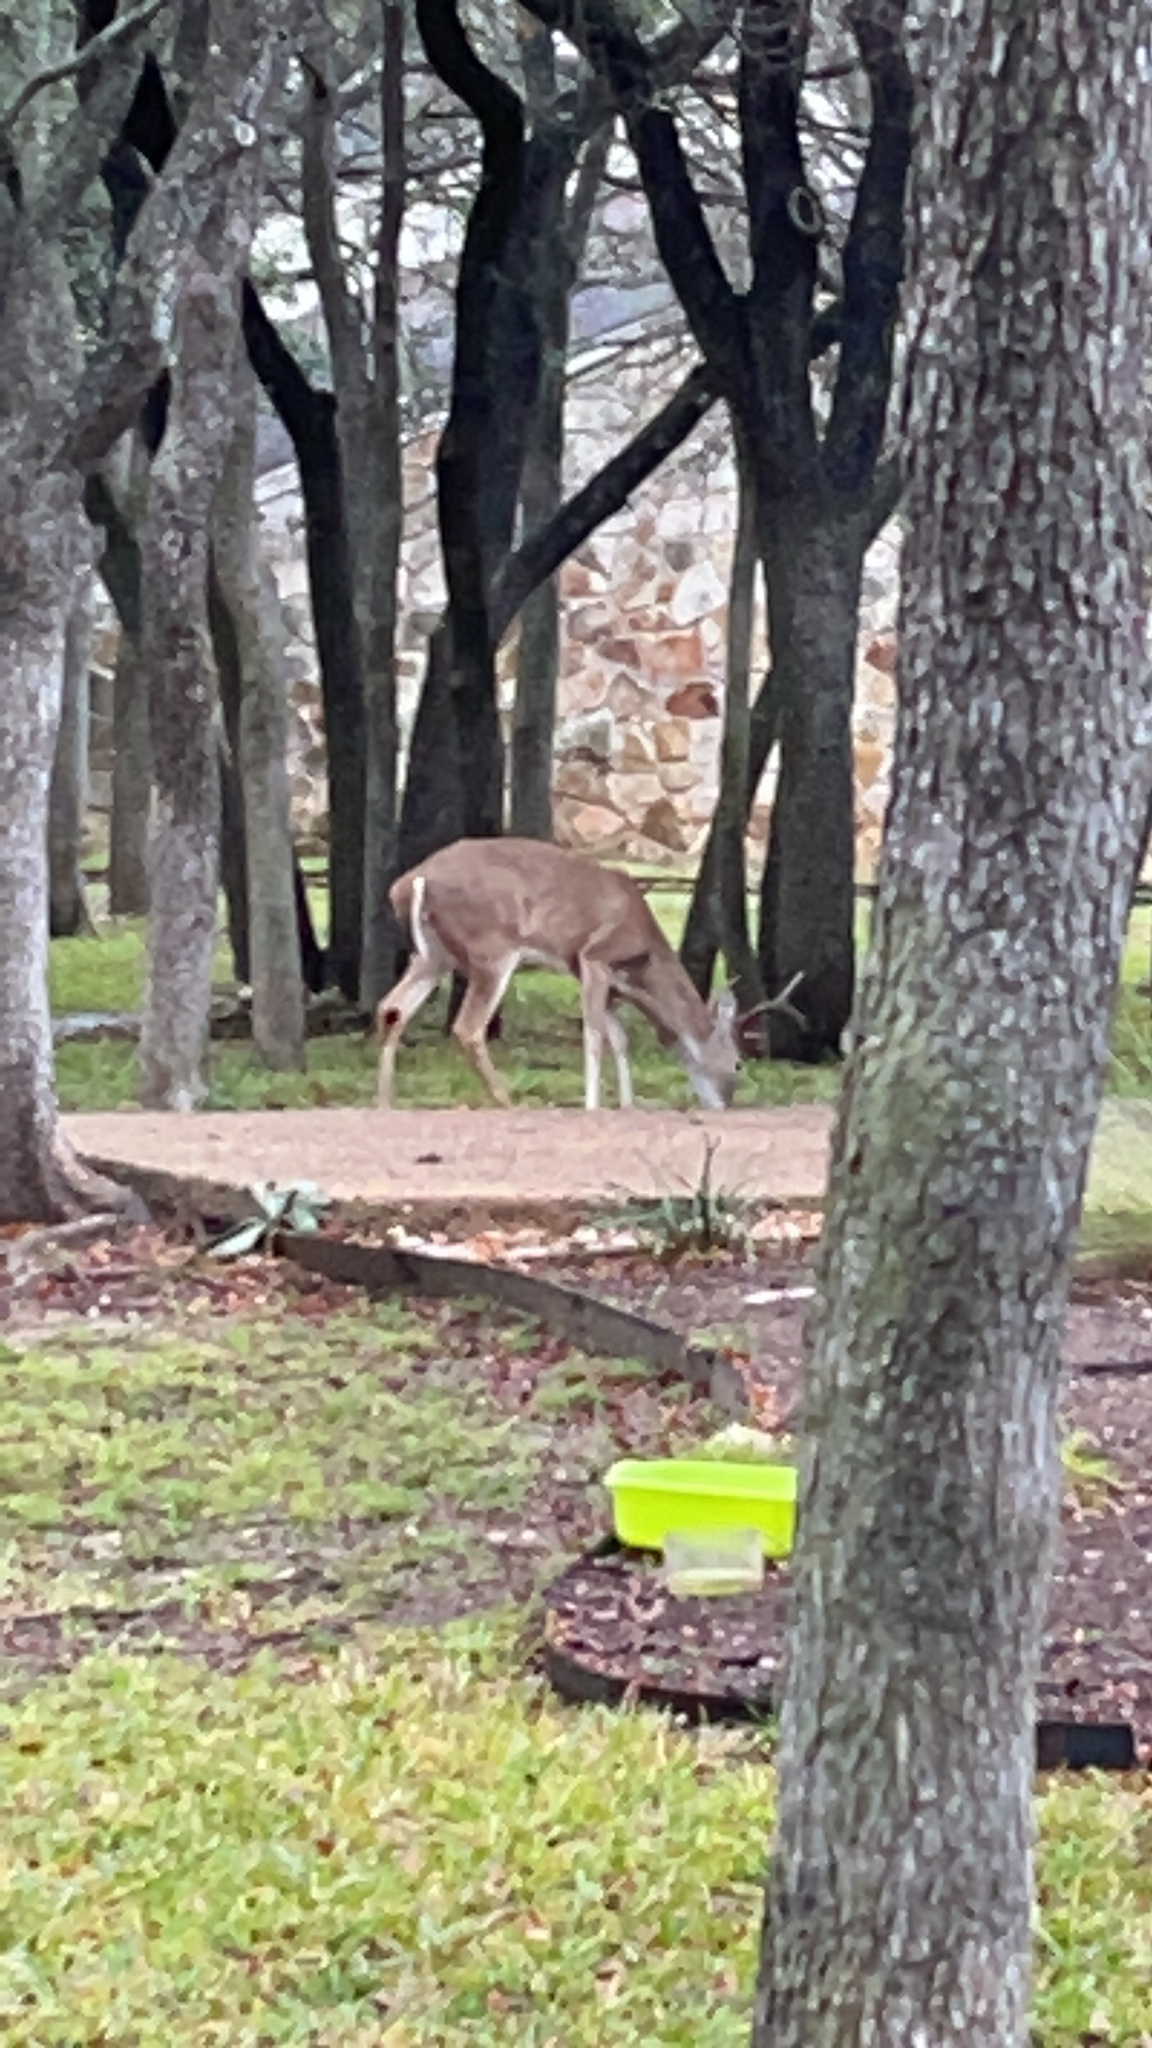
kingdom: Animalia
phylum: Chordata
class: Mammalia
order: Artiodactyla
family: Cervidae
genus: Odocoileus
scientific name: Odocoileus virginianus
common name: White-tailed deer
